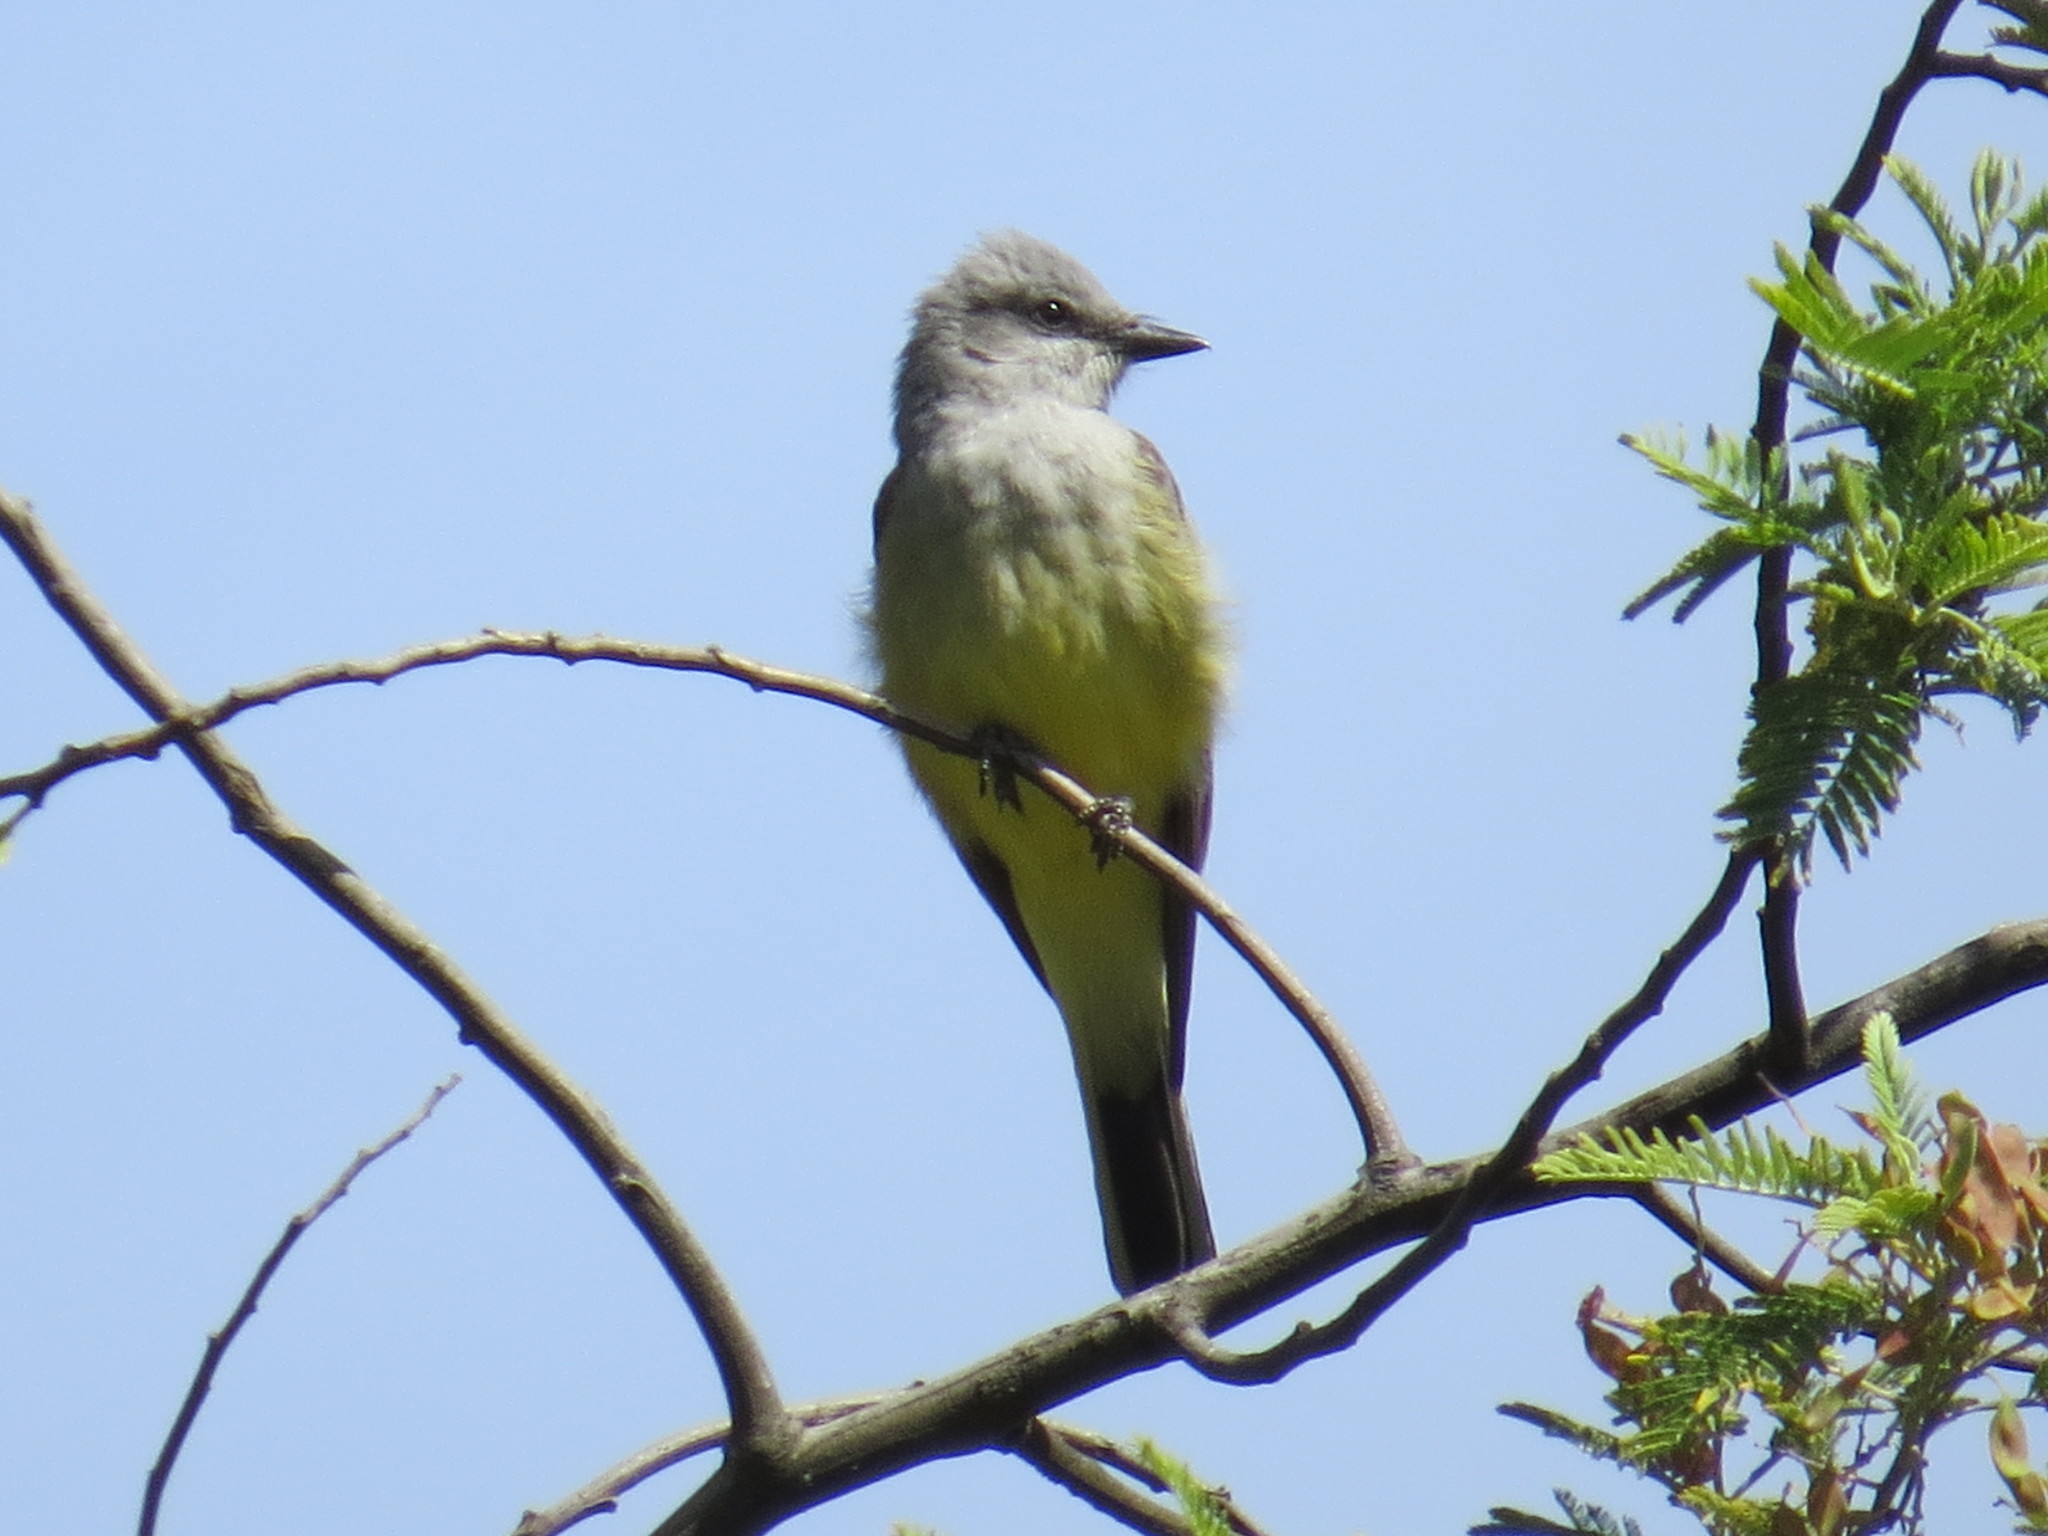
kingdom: Animalia
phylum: Chordata
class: Aves
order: Passeriformes
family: Tyrannidae
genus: Tyrannus
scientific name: Tyrannus verticalis
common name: Western kingbird
